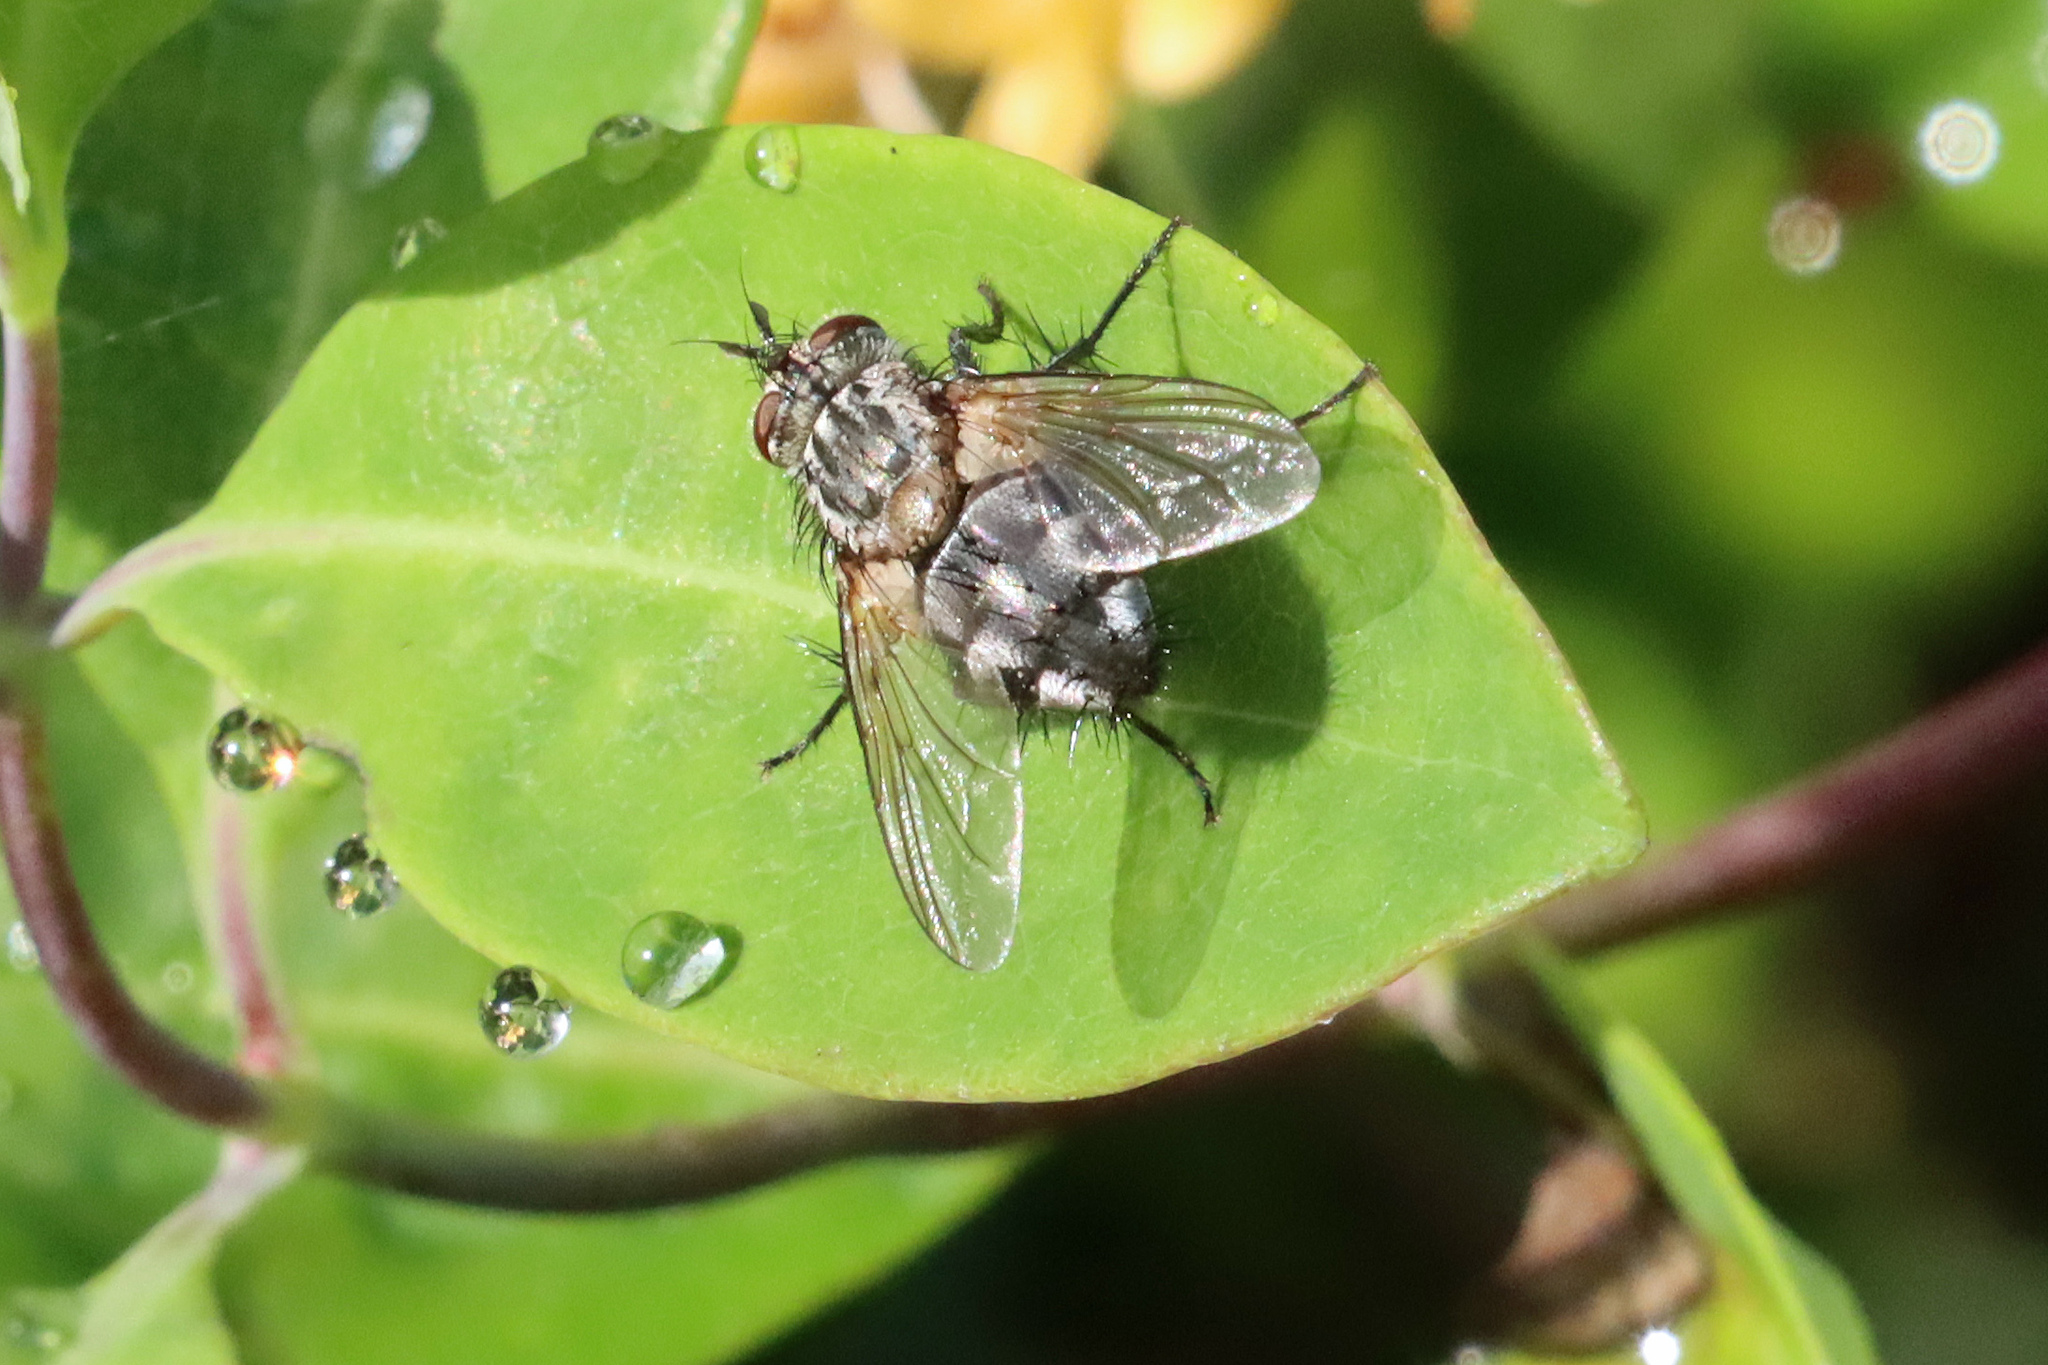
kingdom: Animalia
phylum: Arthropoda
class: Insecta
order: Diptera
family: Tachinidae
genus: Linnaemya
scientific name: Linnaemya
